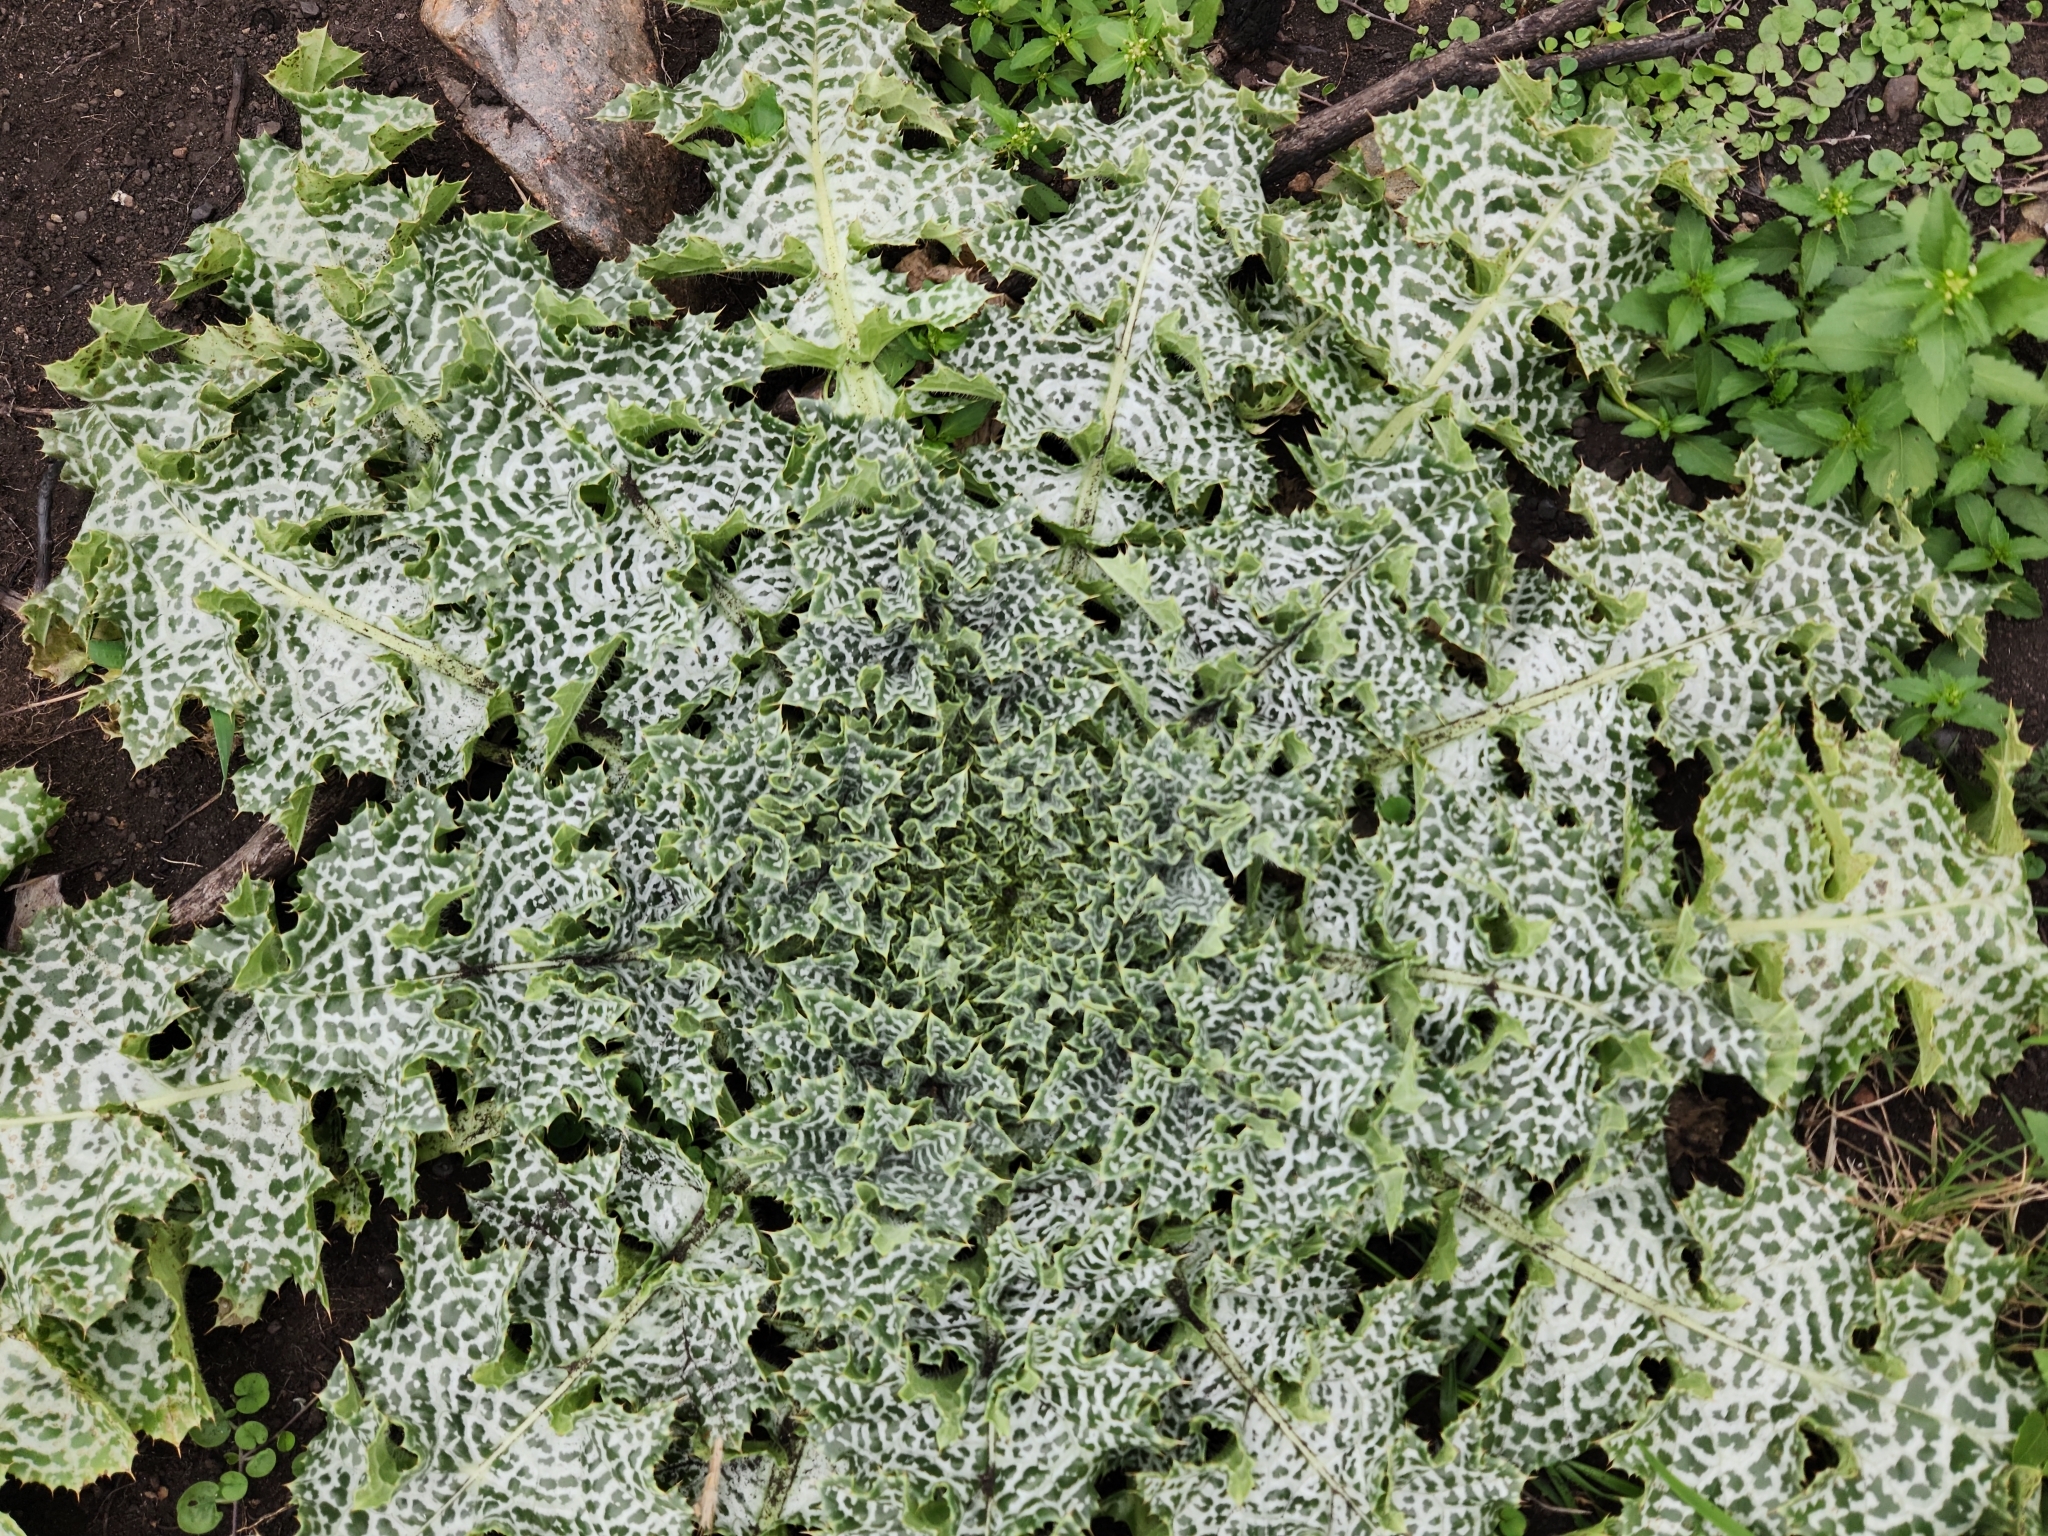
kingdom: Plantae
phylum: Tracheophyta
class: Magnoliopsida
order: Asterales
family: Asteraceae
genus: Silybum
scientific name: Silybum marianum
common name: Milk thistle
